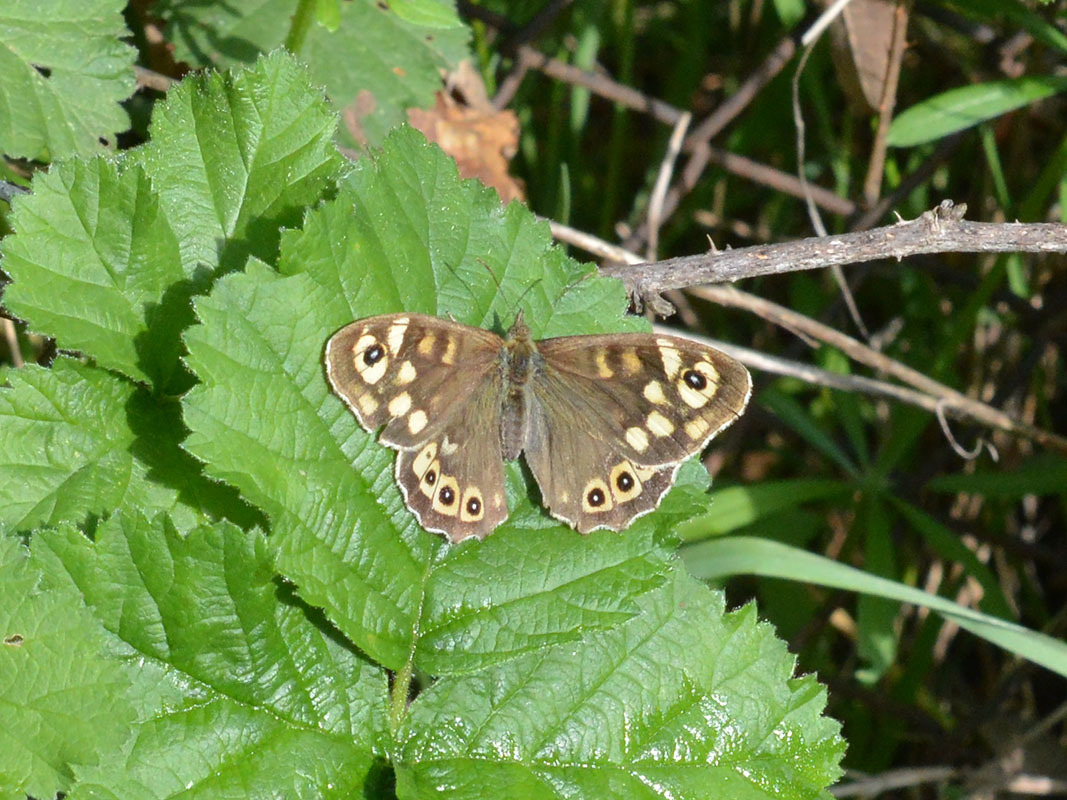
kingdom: Animalia
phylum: Arthropoda
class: Insecta
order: Lepidoptera
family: Nymphalidae
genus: Pararge
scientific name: Pararge aegeria
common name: Speckled wood
